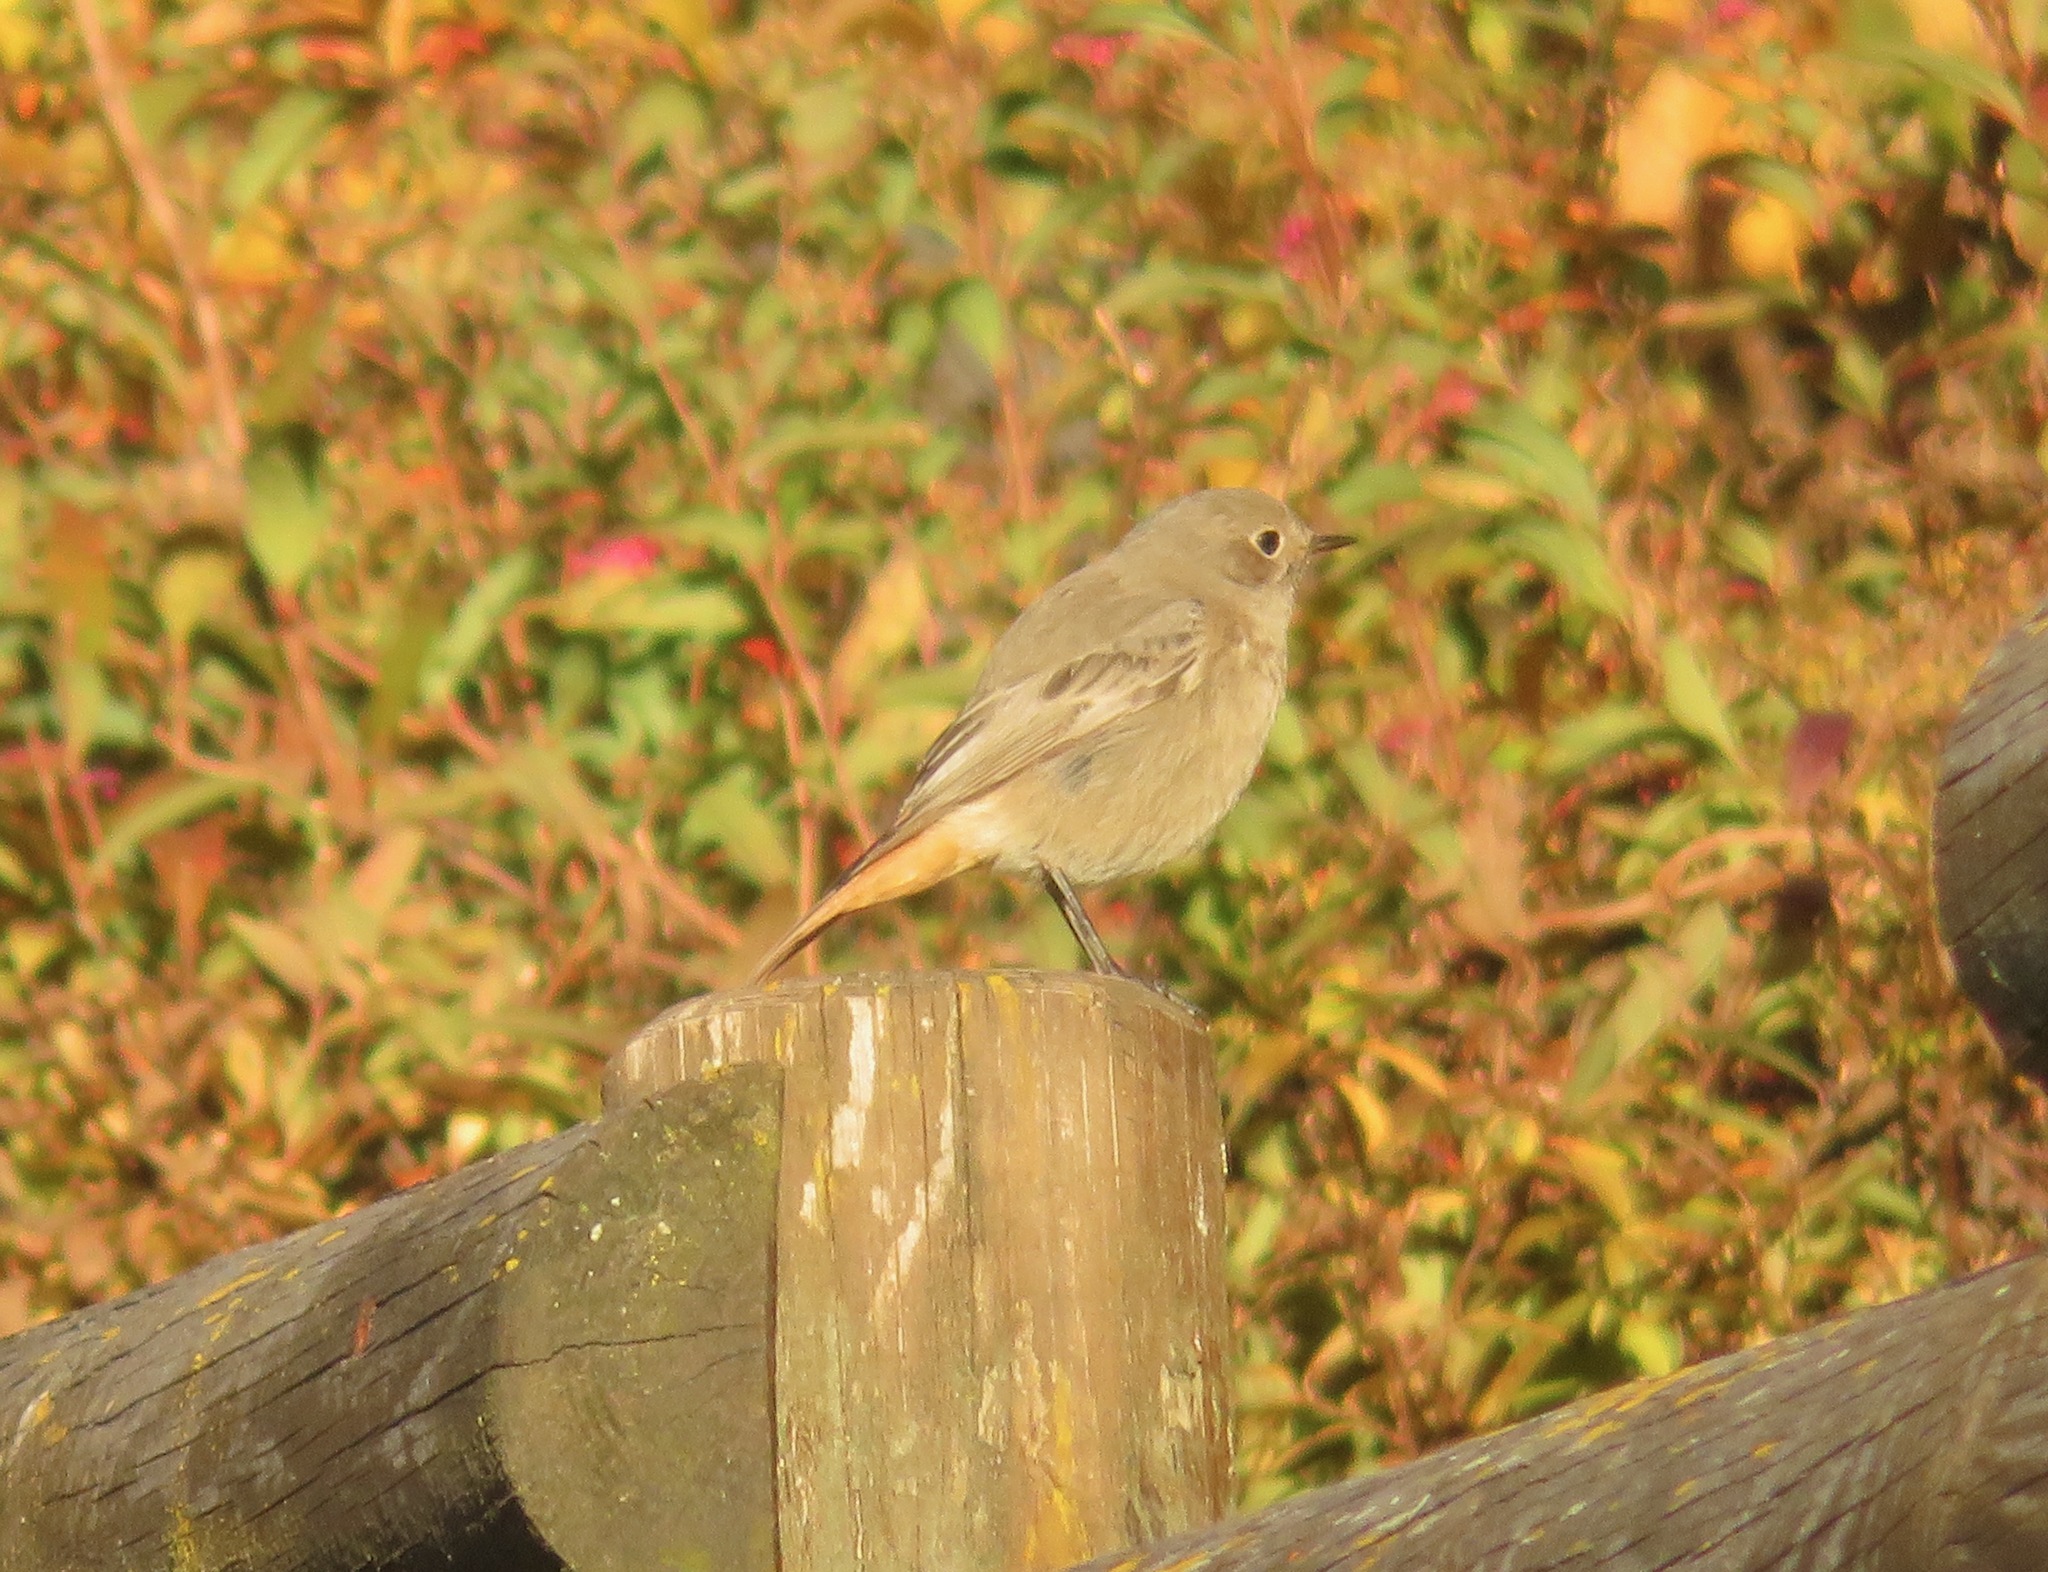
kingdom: Animalia
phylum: Chordata
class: Aves
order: Passeriformes
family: Muscicapidae
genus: Phoenicurus
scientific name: Phoenicurus ochruros
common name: Black redstart
